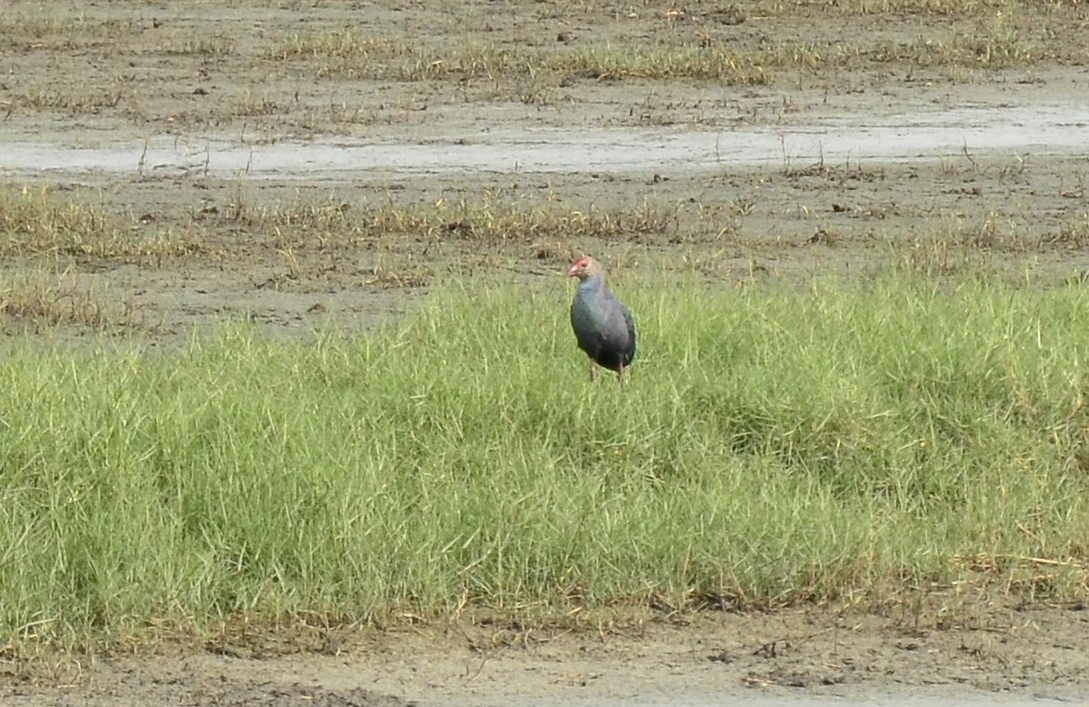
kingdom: Animalia
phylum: Chordata
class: Aves
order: Gruiformes
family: Rallidae
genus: Porphyrio
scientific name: Porphyrio porphyrio
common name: Purple swamphen
